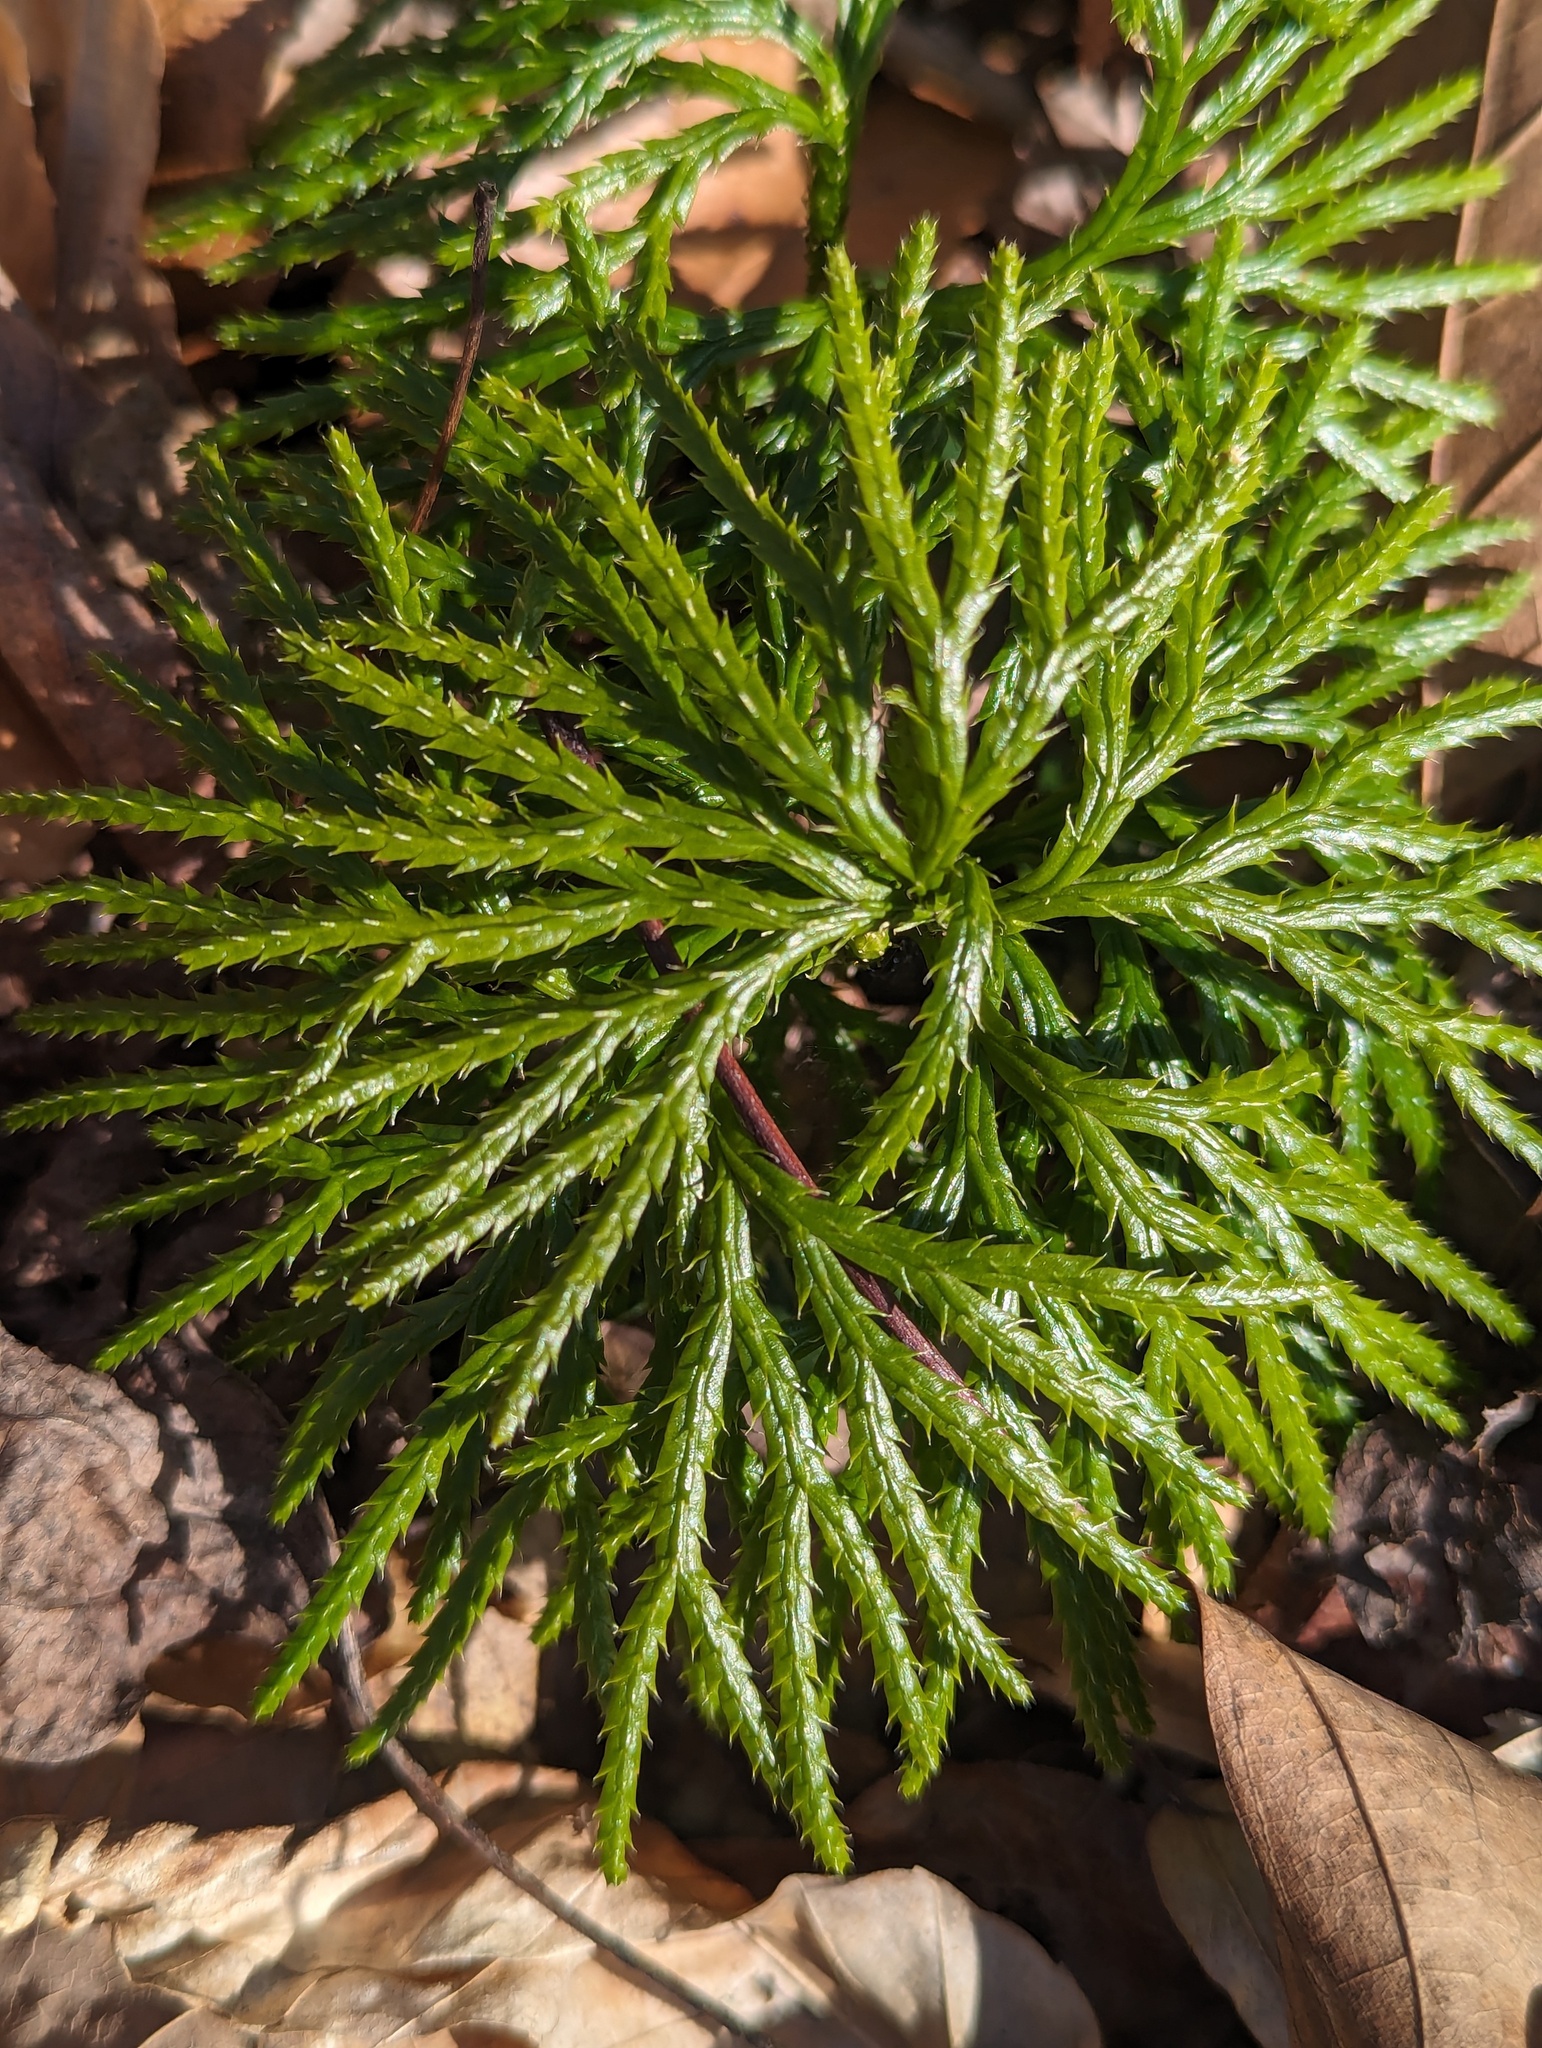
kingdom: Plantae
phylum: Tracheophyta
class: Lycopodiopsida
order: Lycopodiales
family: Lycopodiaceae
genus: Diphasiastrum
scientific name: Diphasiastrum digitatum
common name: Southern running-pine
